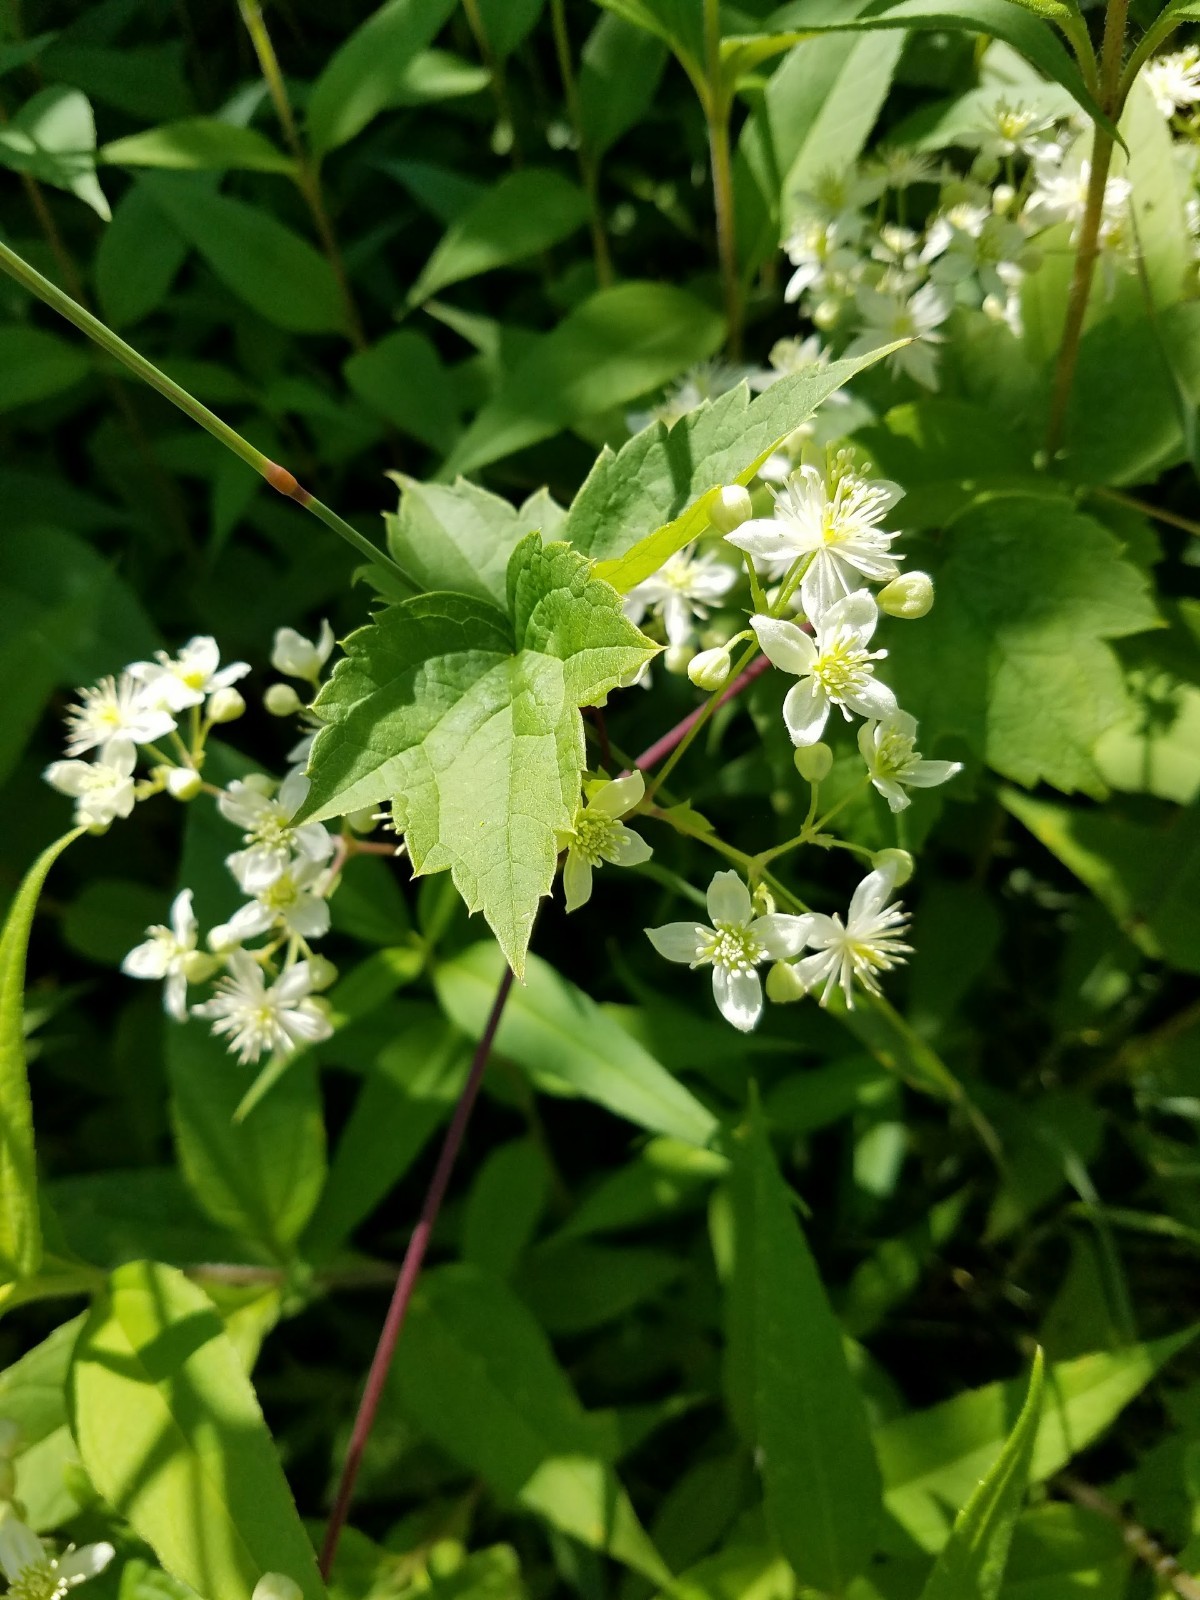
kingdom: Plantae
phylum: Tracheophyta
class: Magnoliopsida
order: Ranunculales
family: Ranunculaceae
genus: Clematis
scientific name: Clematis virginiana
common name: Virgin's-bower
